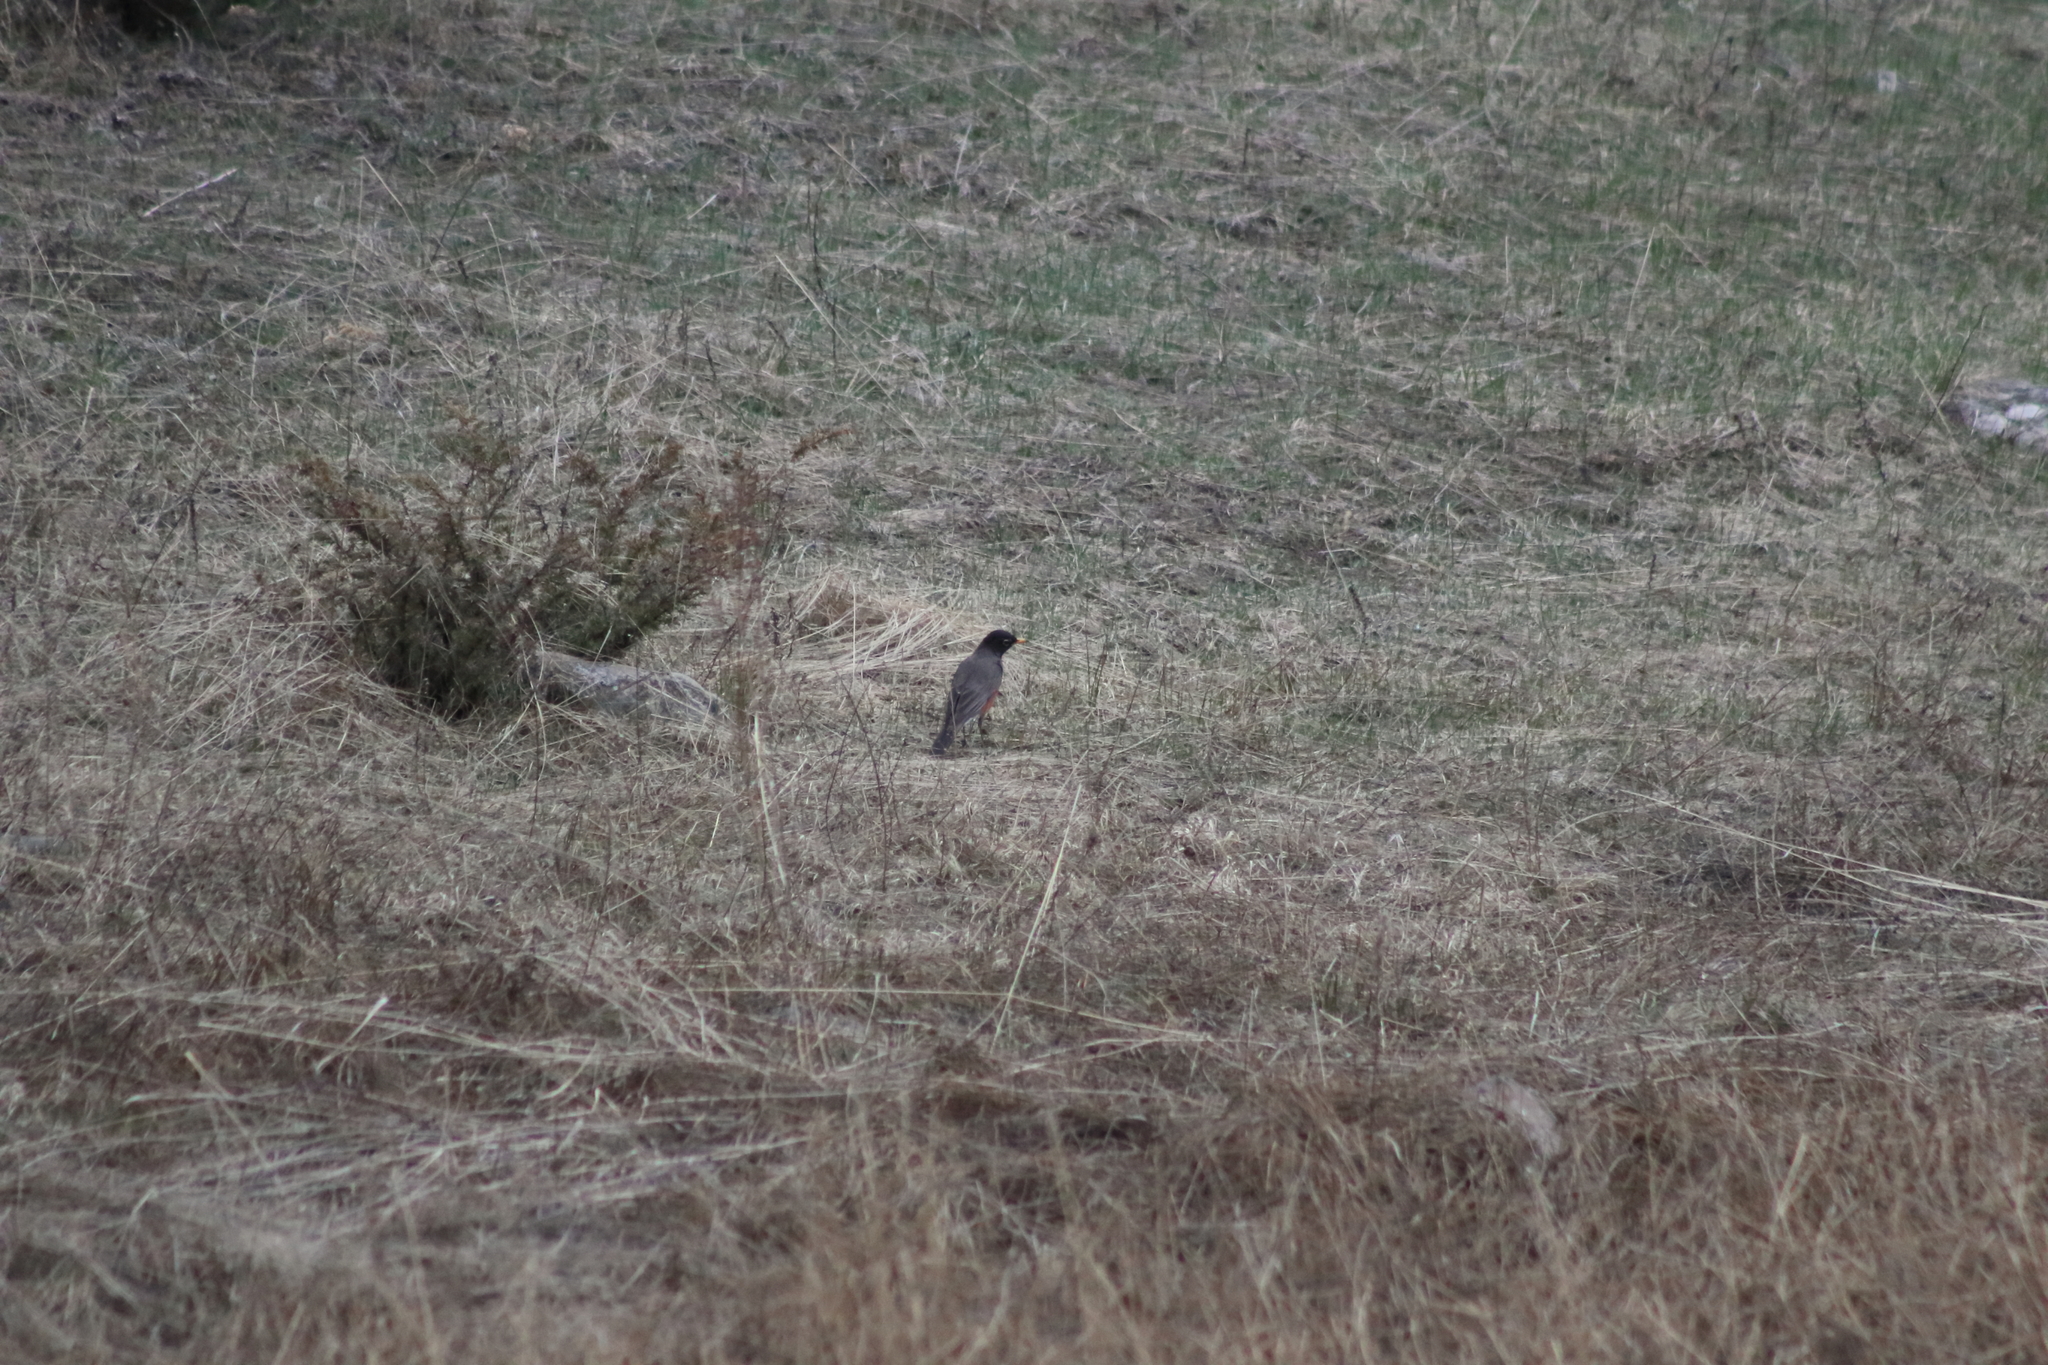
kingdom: Animalia
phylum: Chordata
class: Aves
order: Passeriformes
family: Turdidae
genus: Turdus
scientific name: Turdus migratorius
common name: American robin
